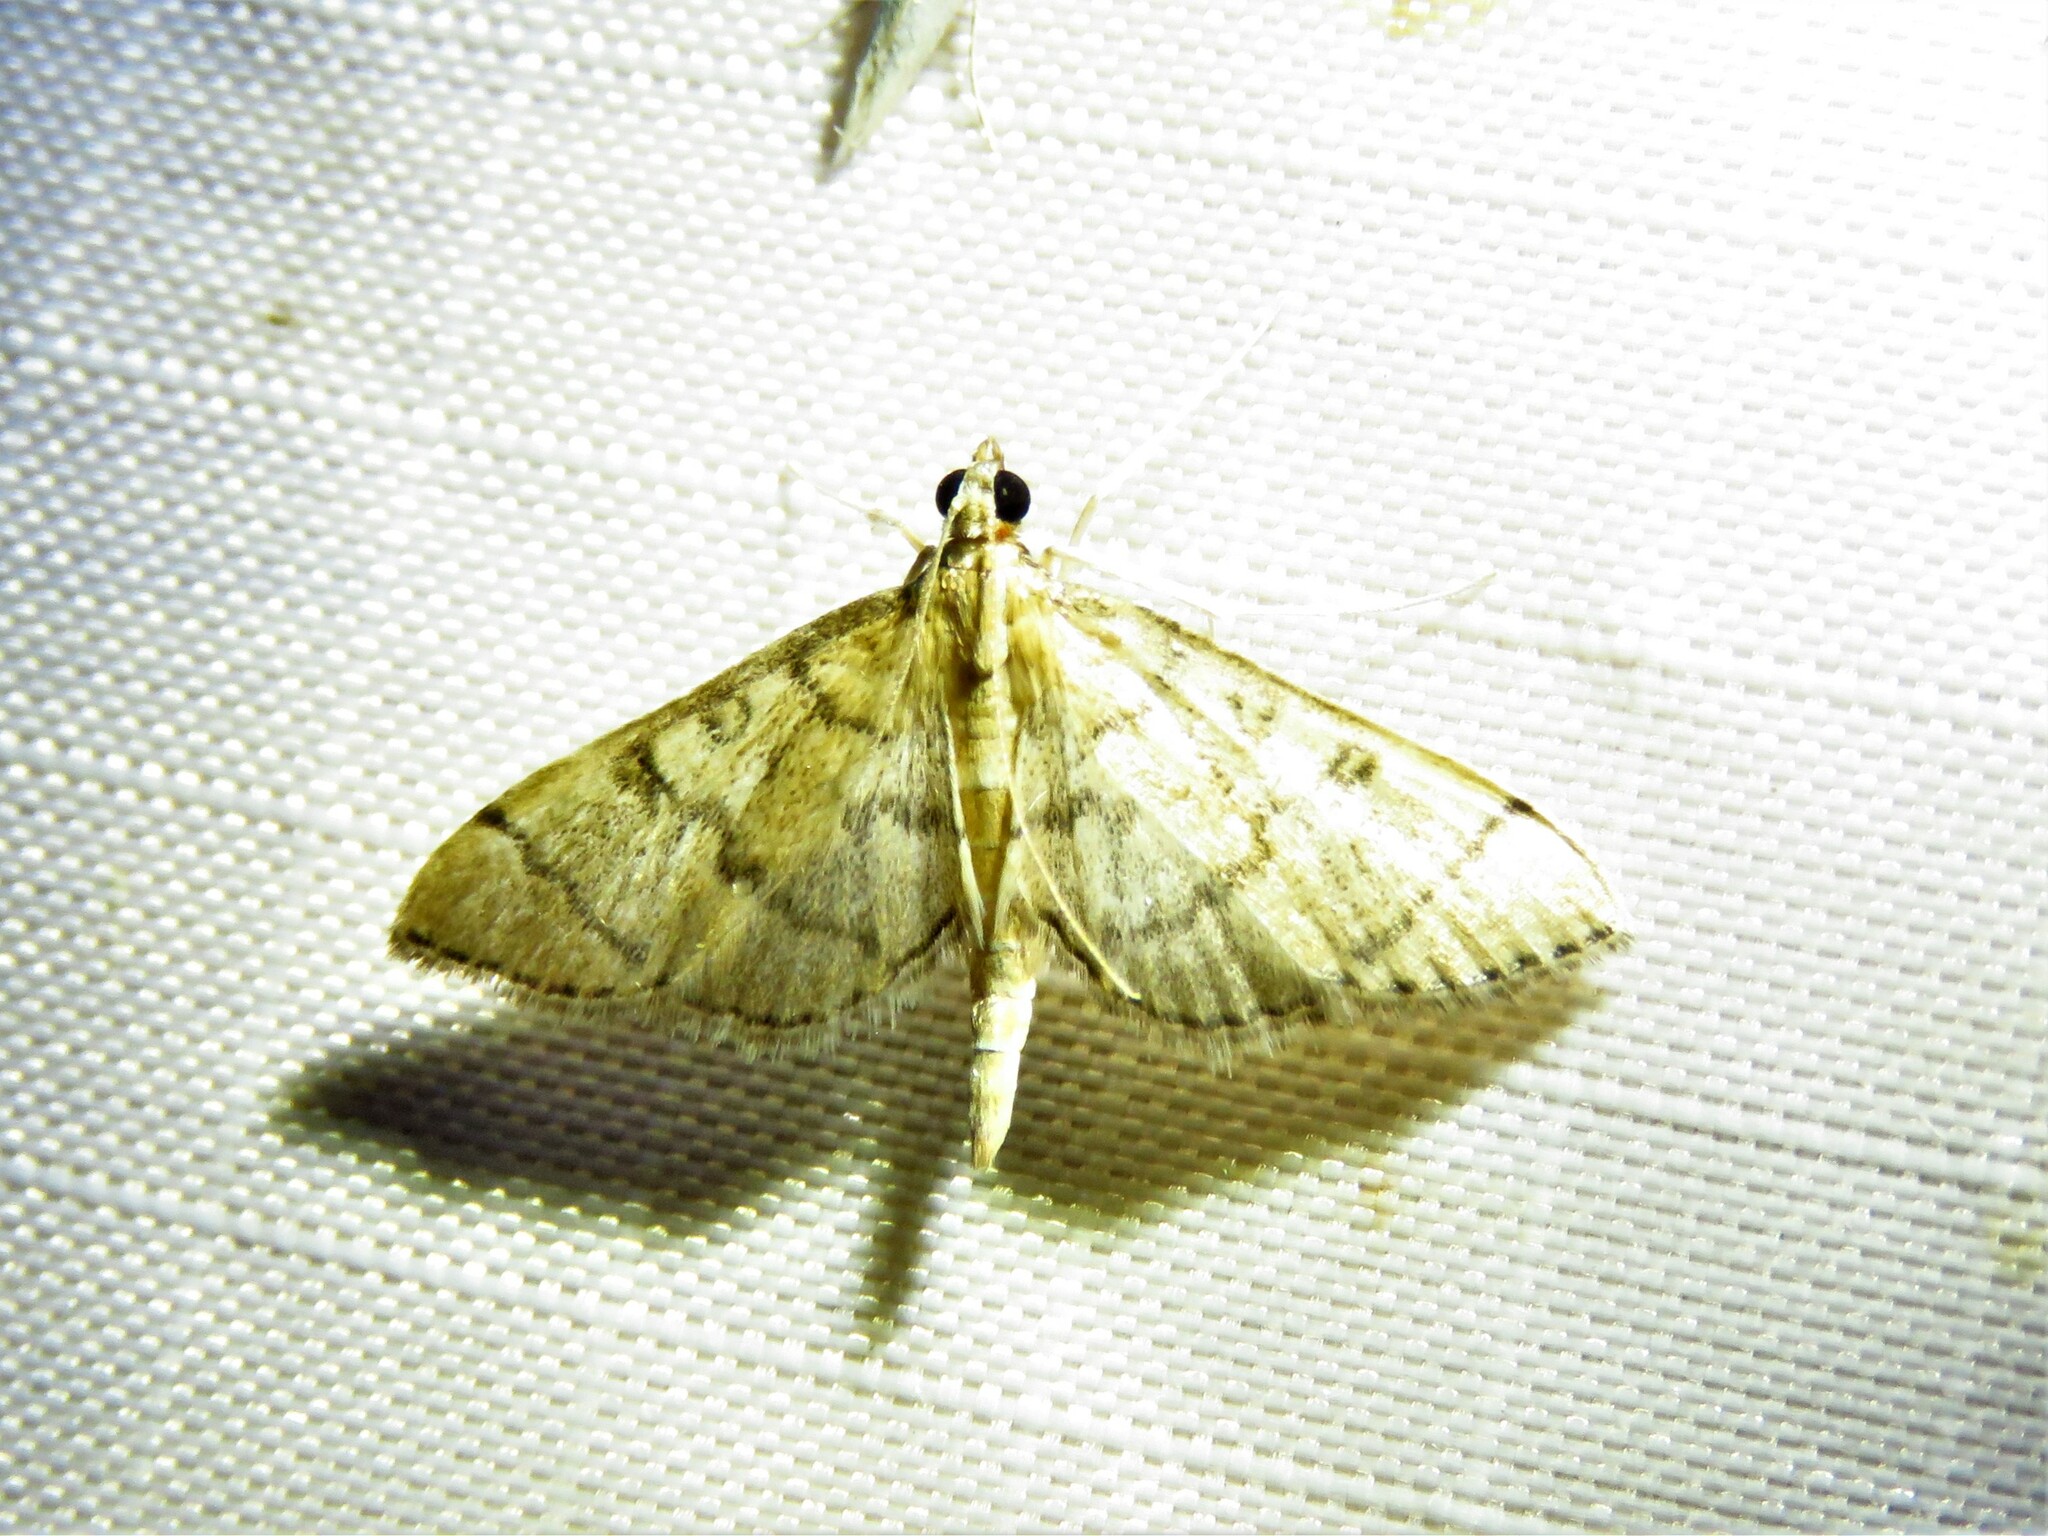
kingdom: Animalia
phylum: Arthropoda
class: Insecta
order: Lepidoptera
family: Crambidae
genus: Lamprosema
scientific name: Lamprosema Blepharomastix ranalis
